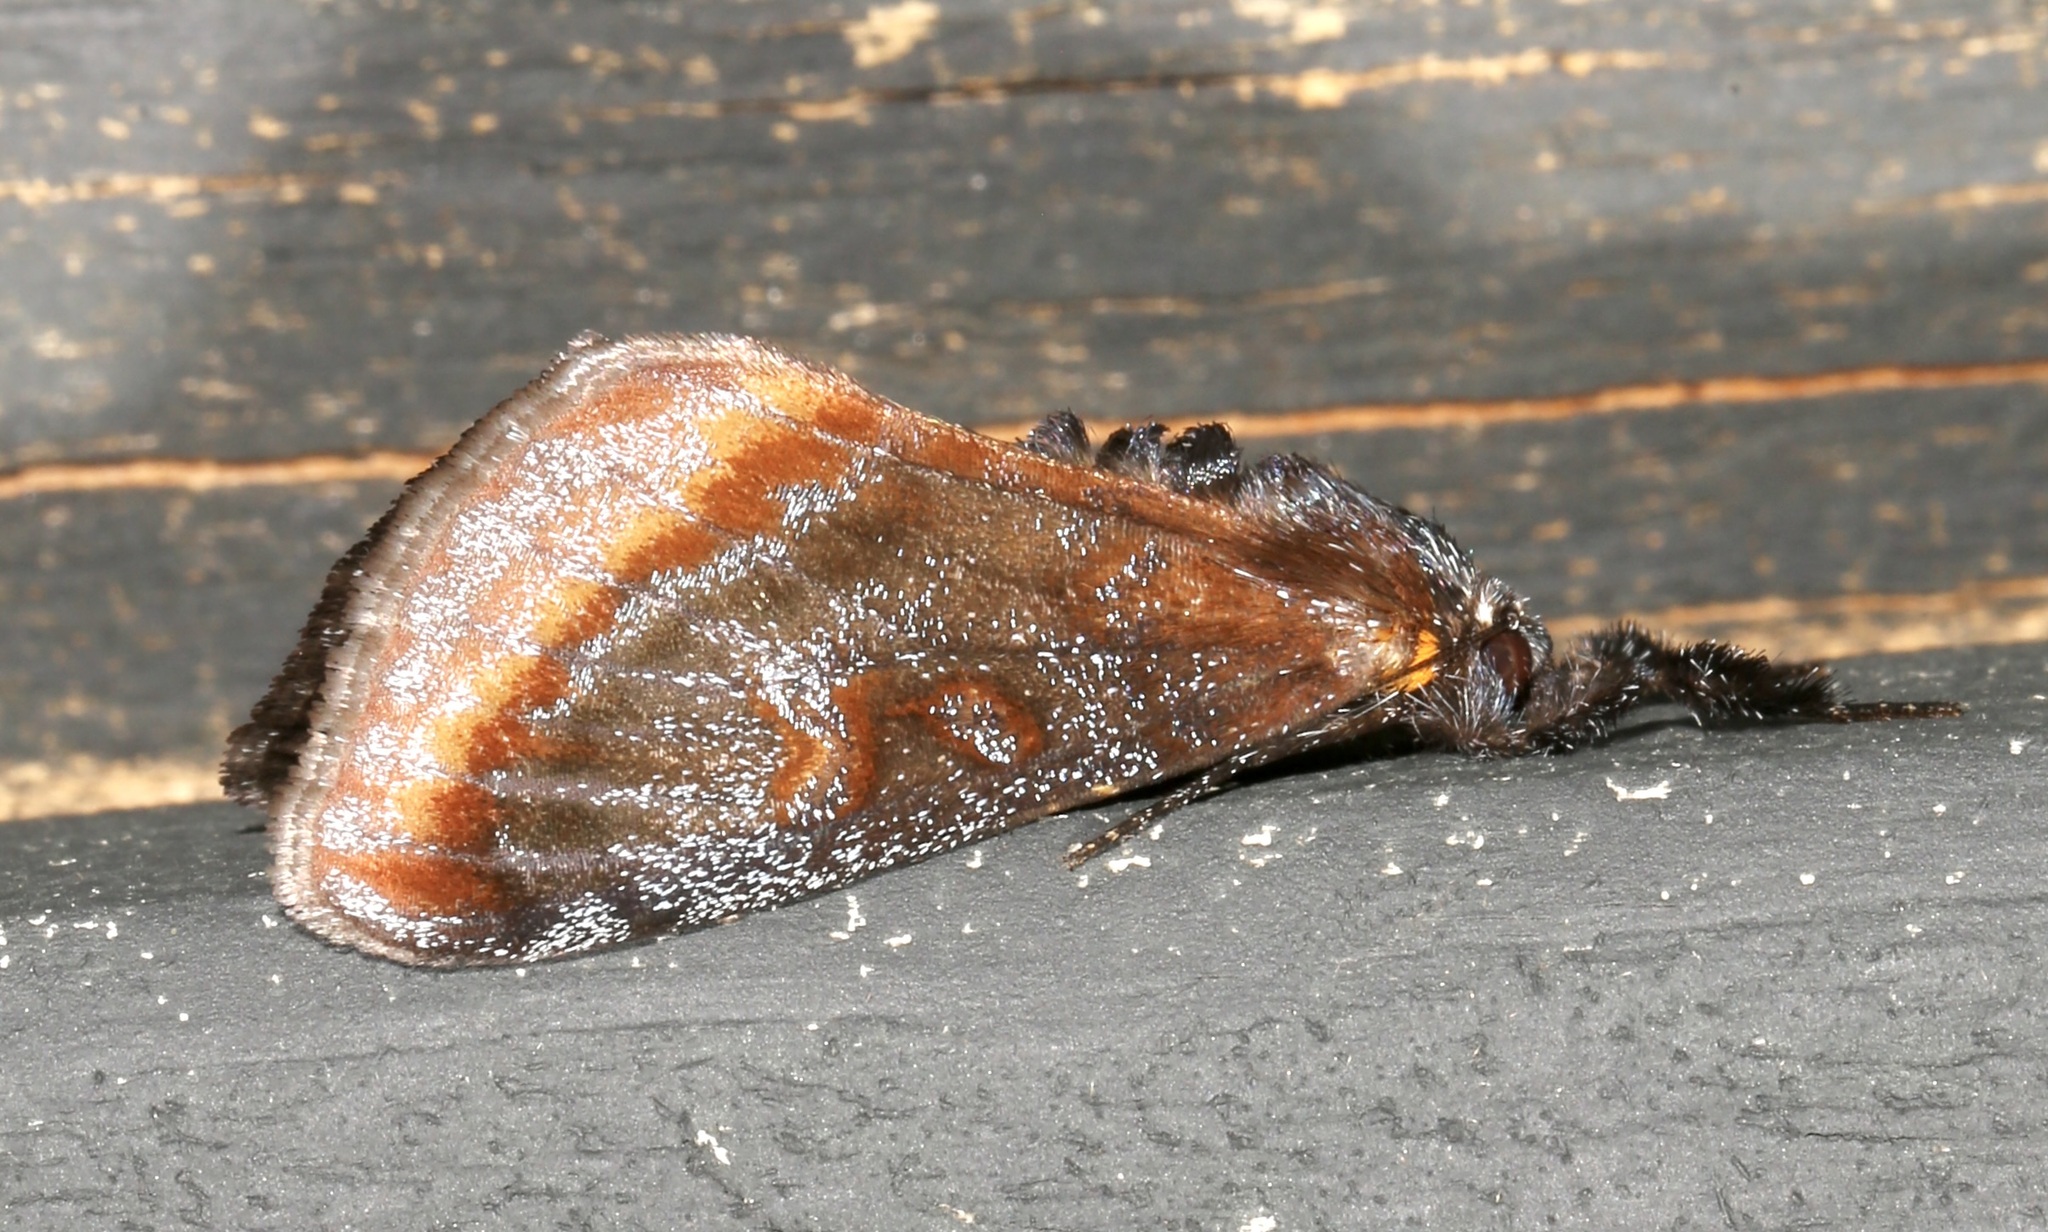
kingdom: Animalia
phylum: Arthropoda
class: Insecta
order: Lepidoptera
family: Noctuidae
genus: Gerra
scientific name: Gerra radicalis
